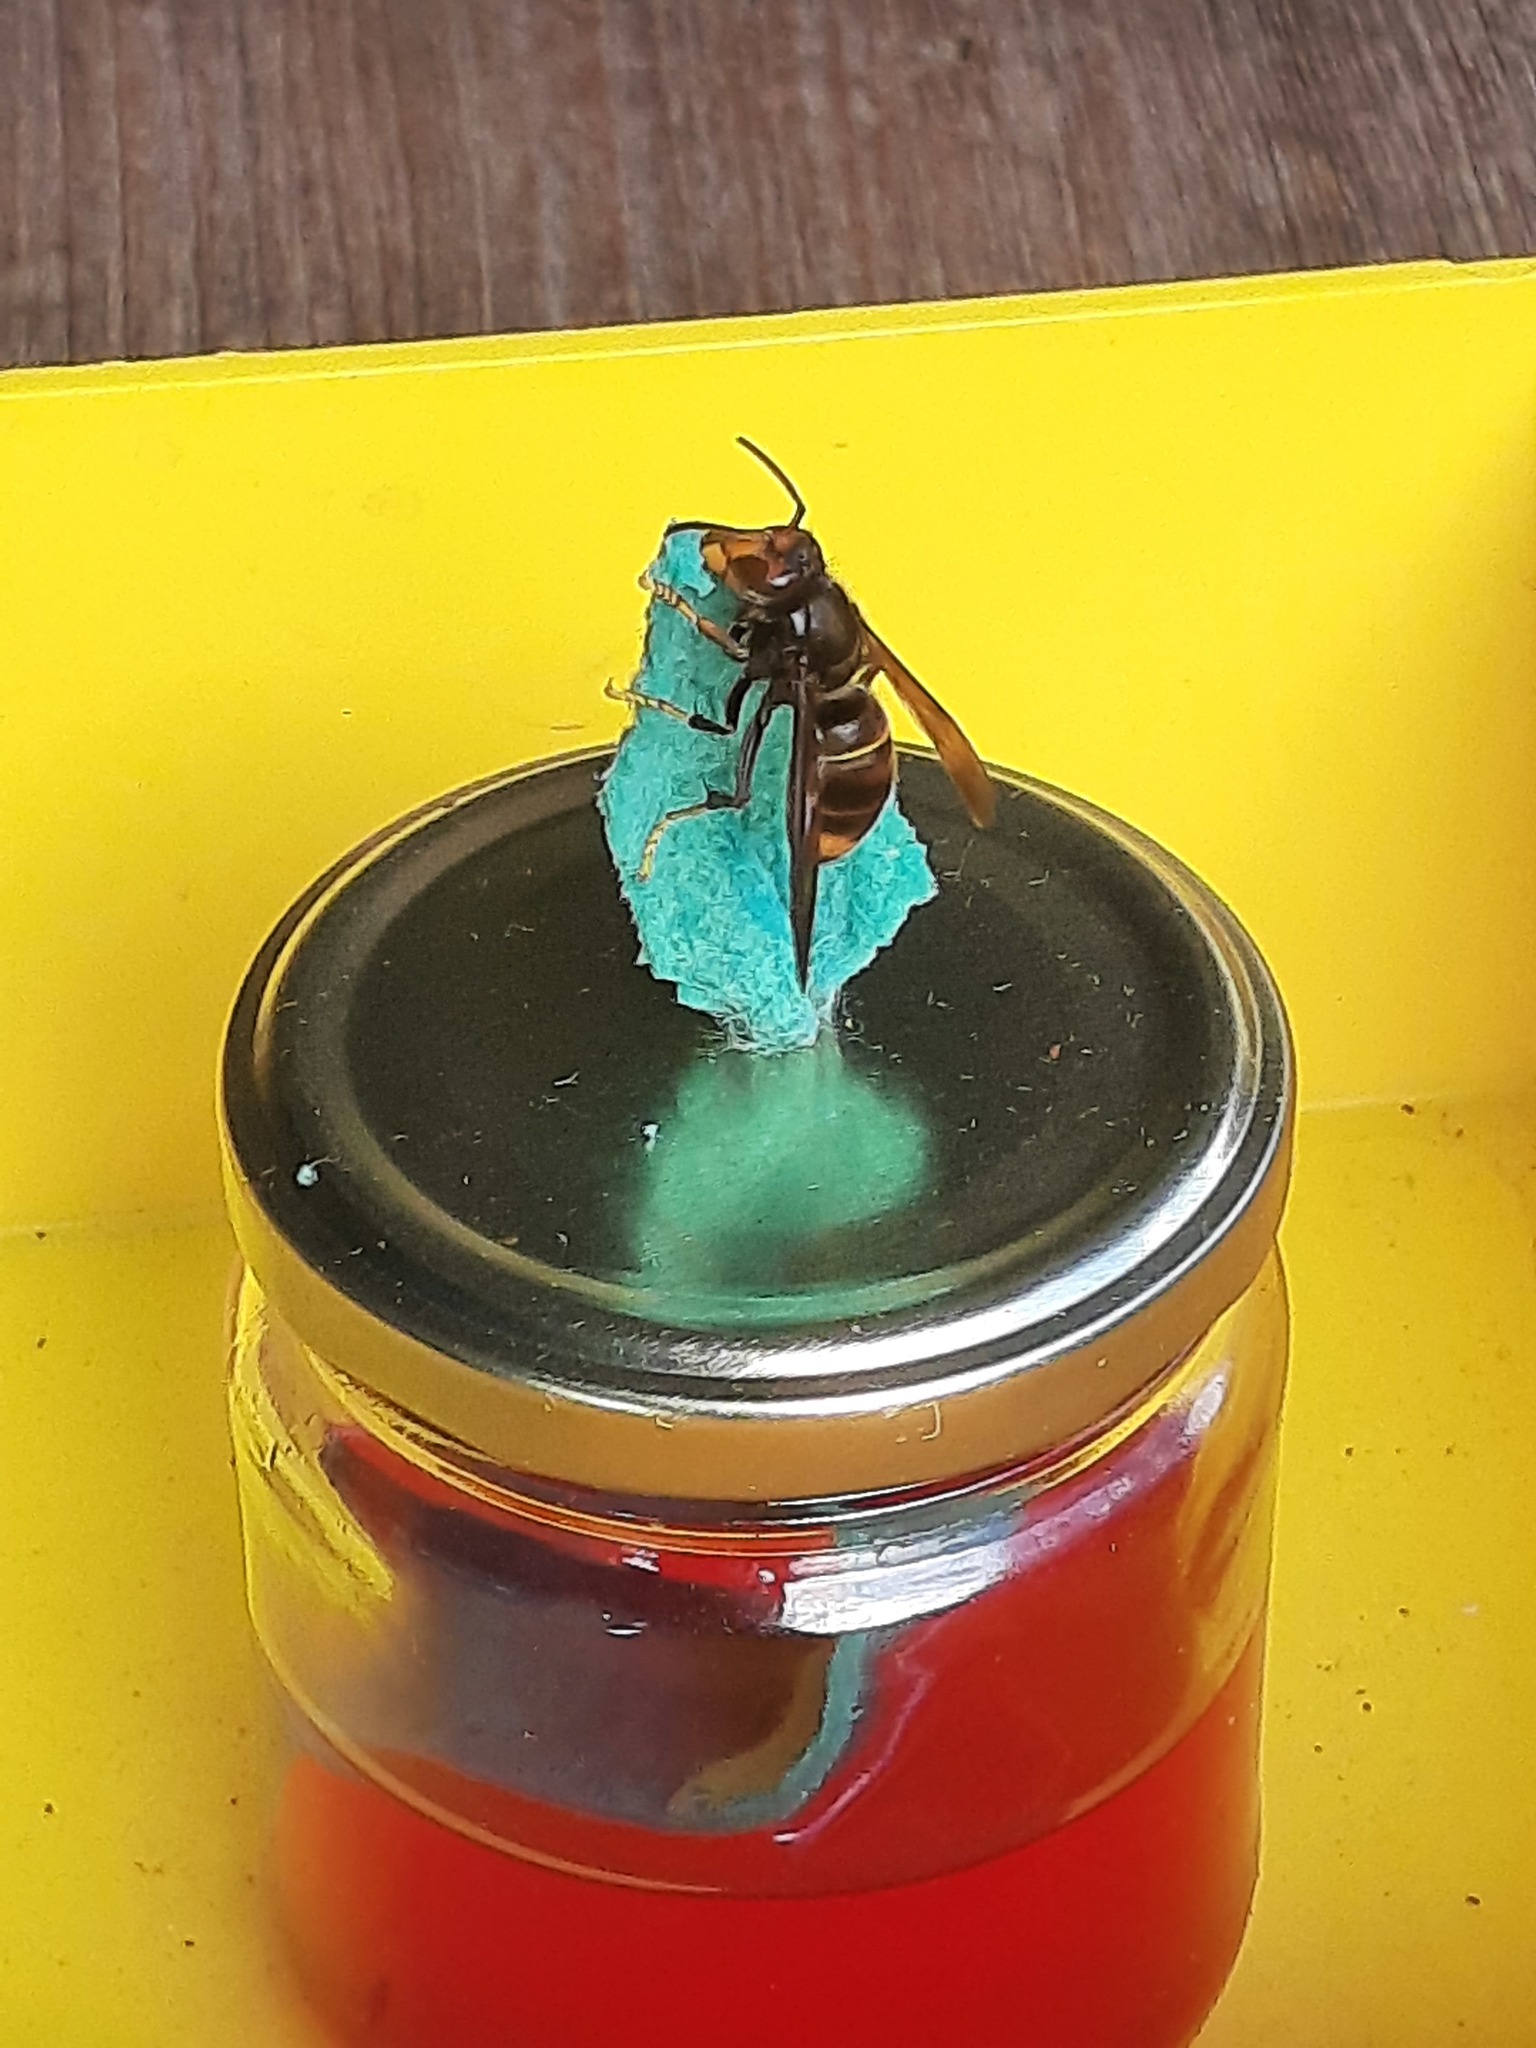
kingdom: Animalia
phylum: Arthropoda
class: Insecta
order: Hymenoptera
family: Vespidae
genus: Vespa
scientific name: Vespa velutina
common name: Asian hornet
